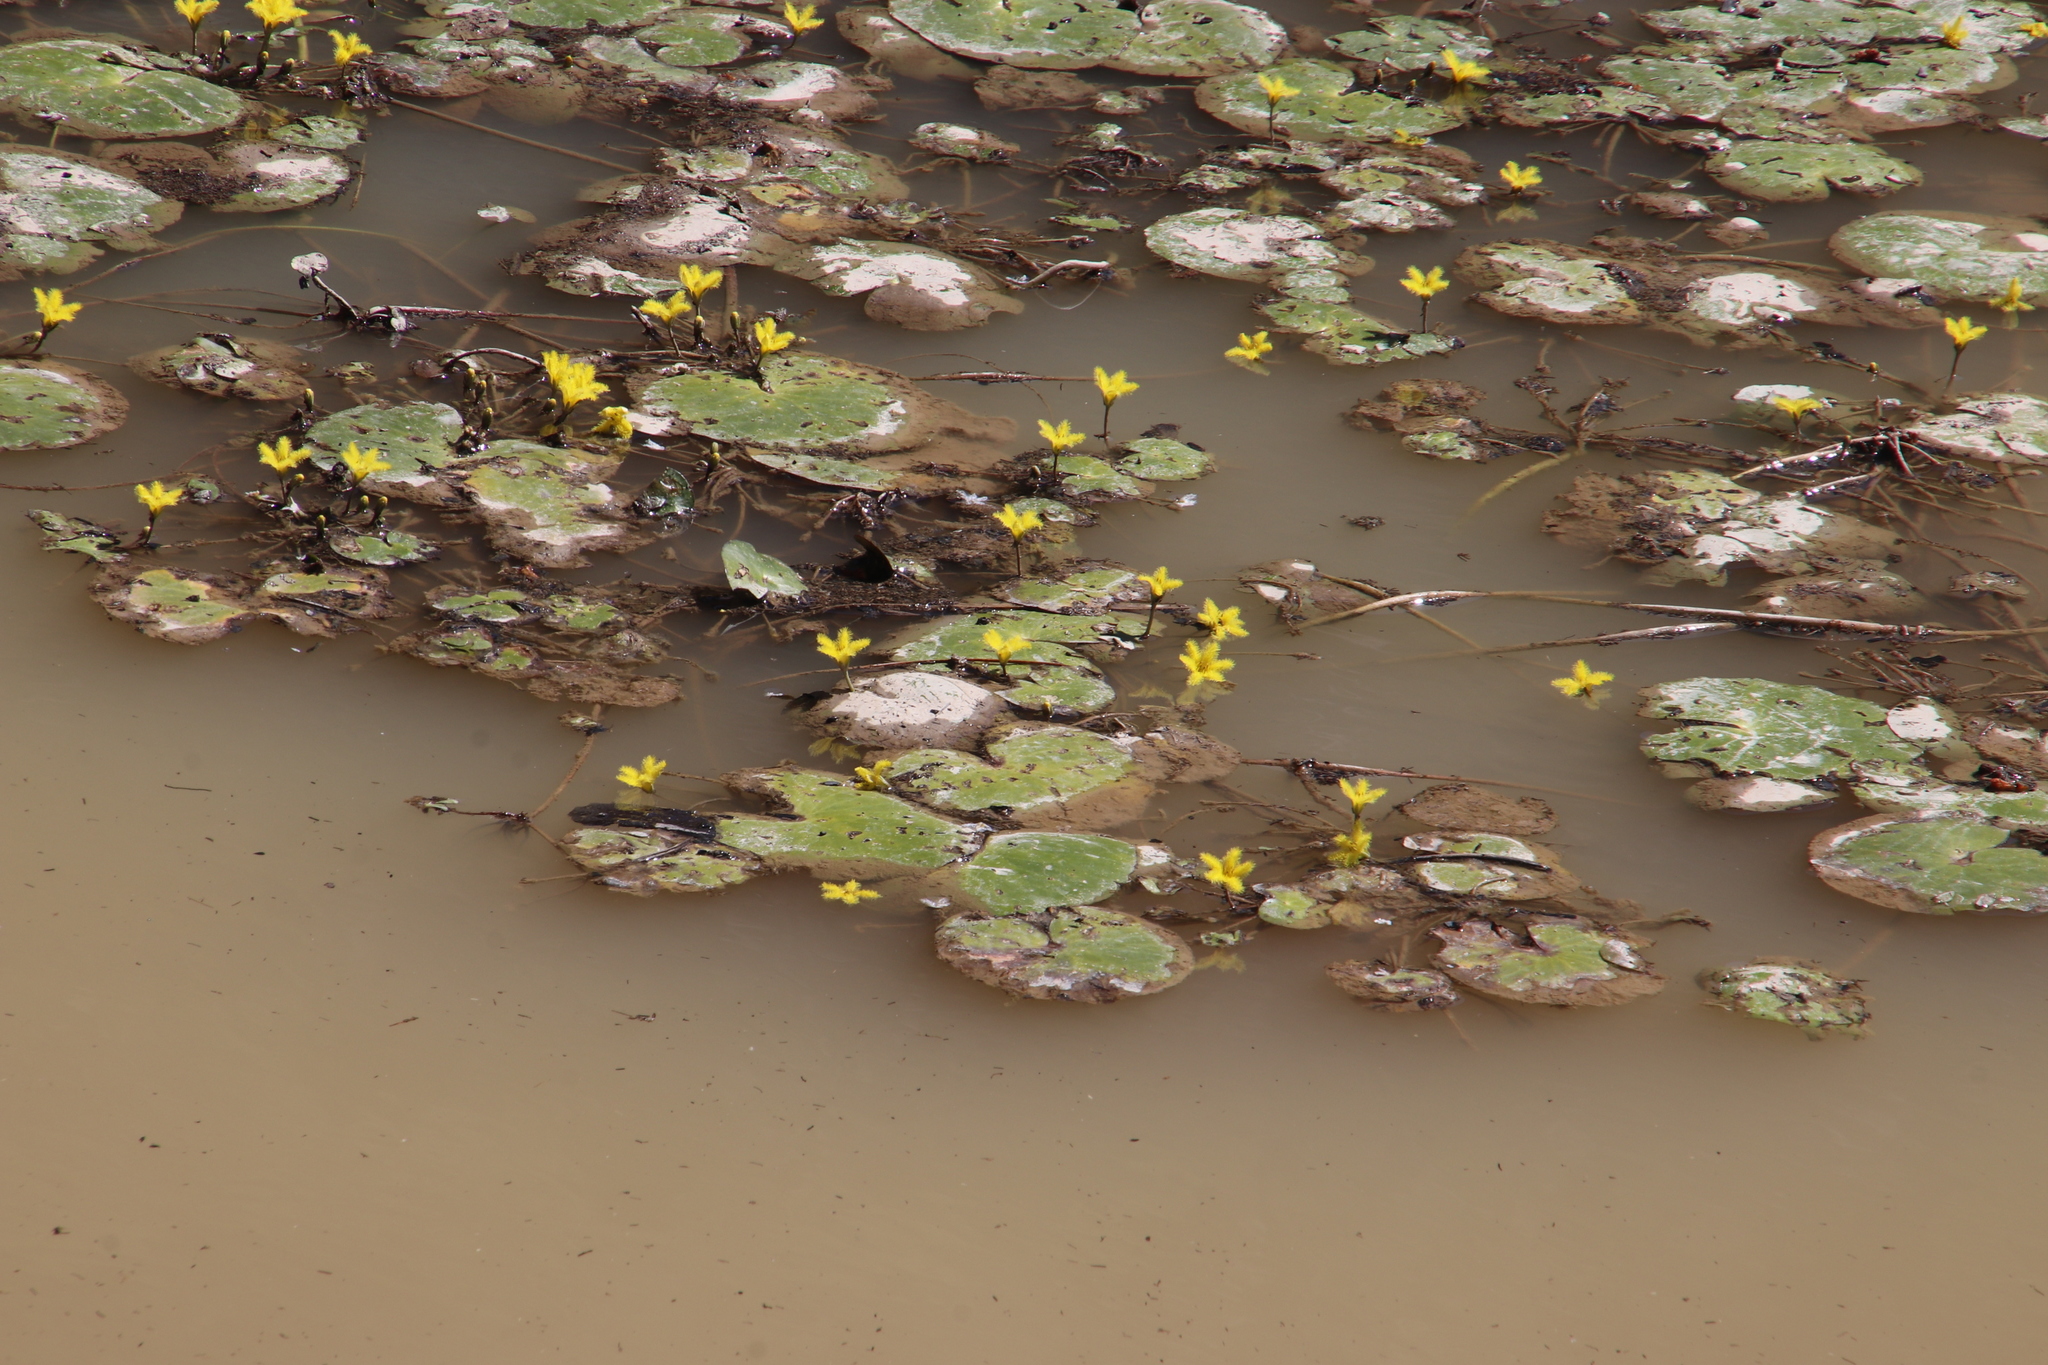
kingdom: Plantae
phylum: Tracheophyta
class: Magnoliopsida
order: Asterales
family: Menyanthaceae
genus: Nymphoides
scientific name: Nymphoides thunbergiana
